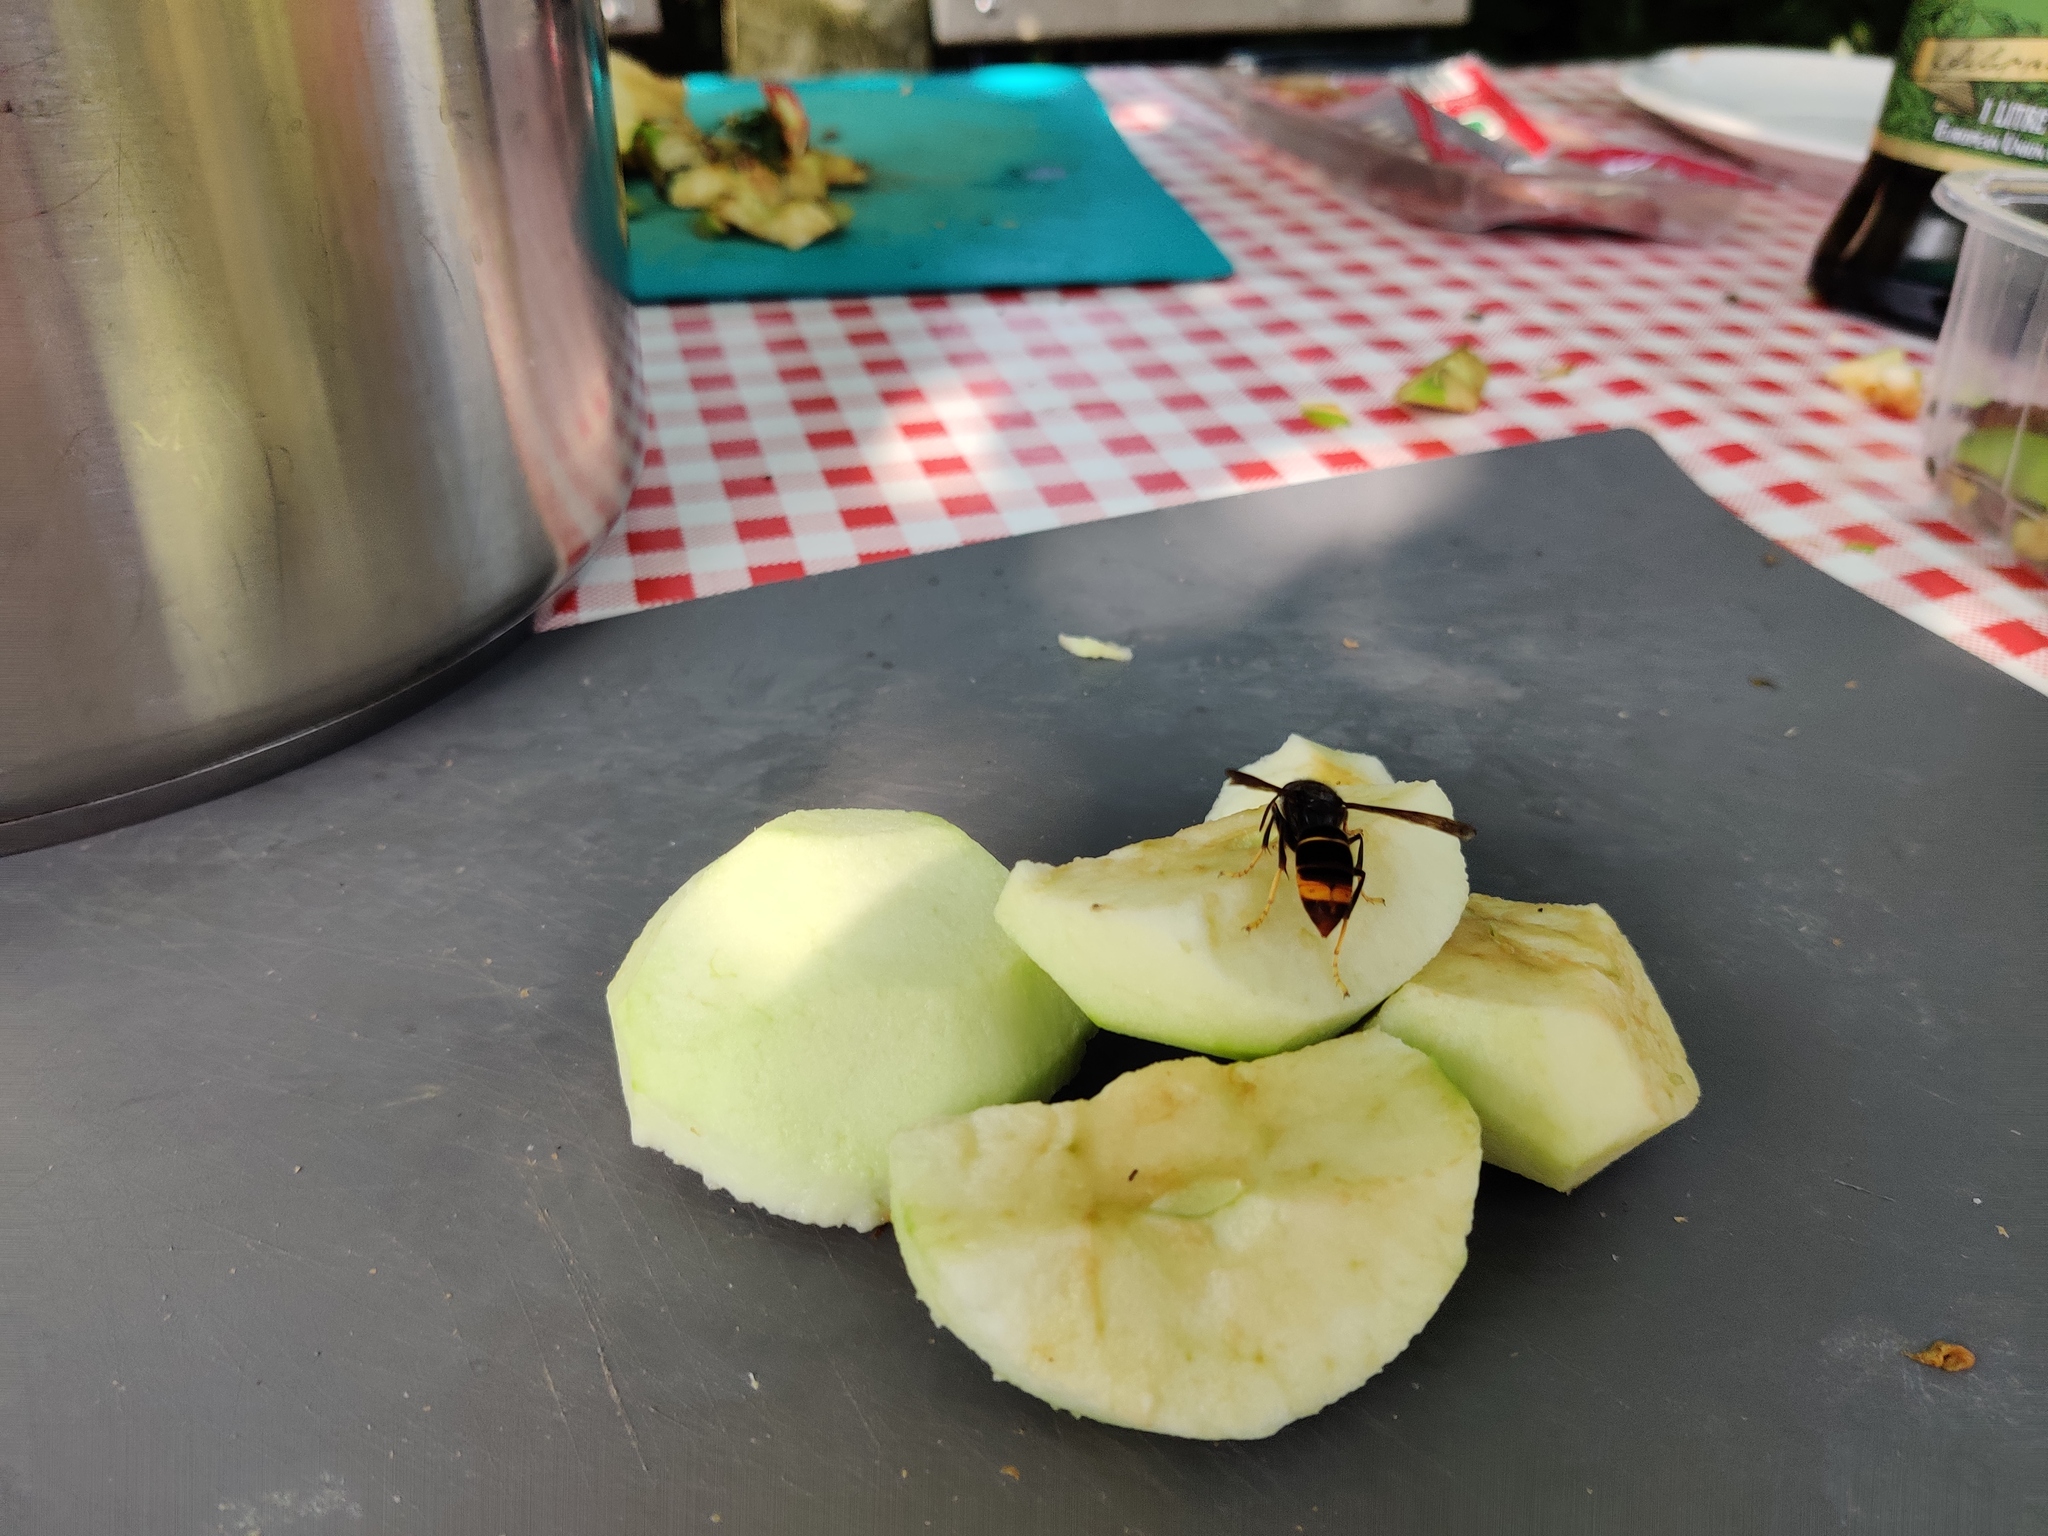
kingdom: Animalia
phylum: Arthropoda
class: Insecta
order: Hymenoptera
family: Vespidae
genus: Vespa
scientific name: Vespa velutina
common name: Asian hornet
